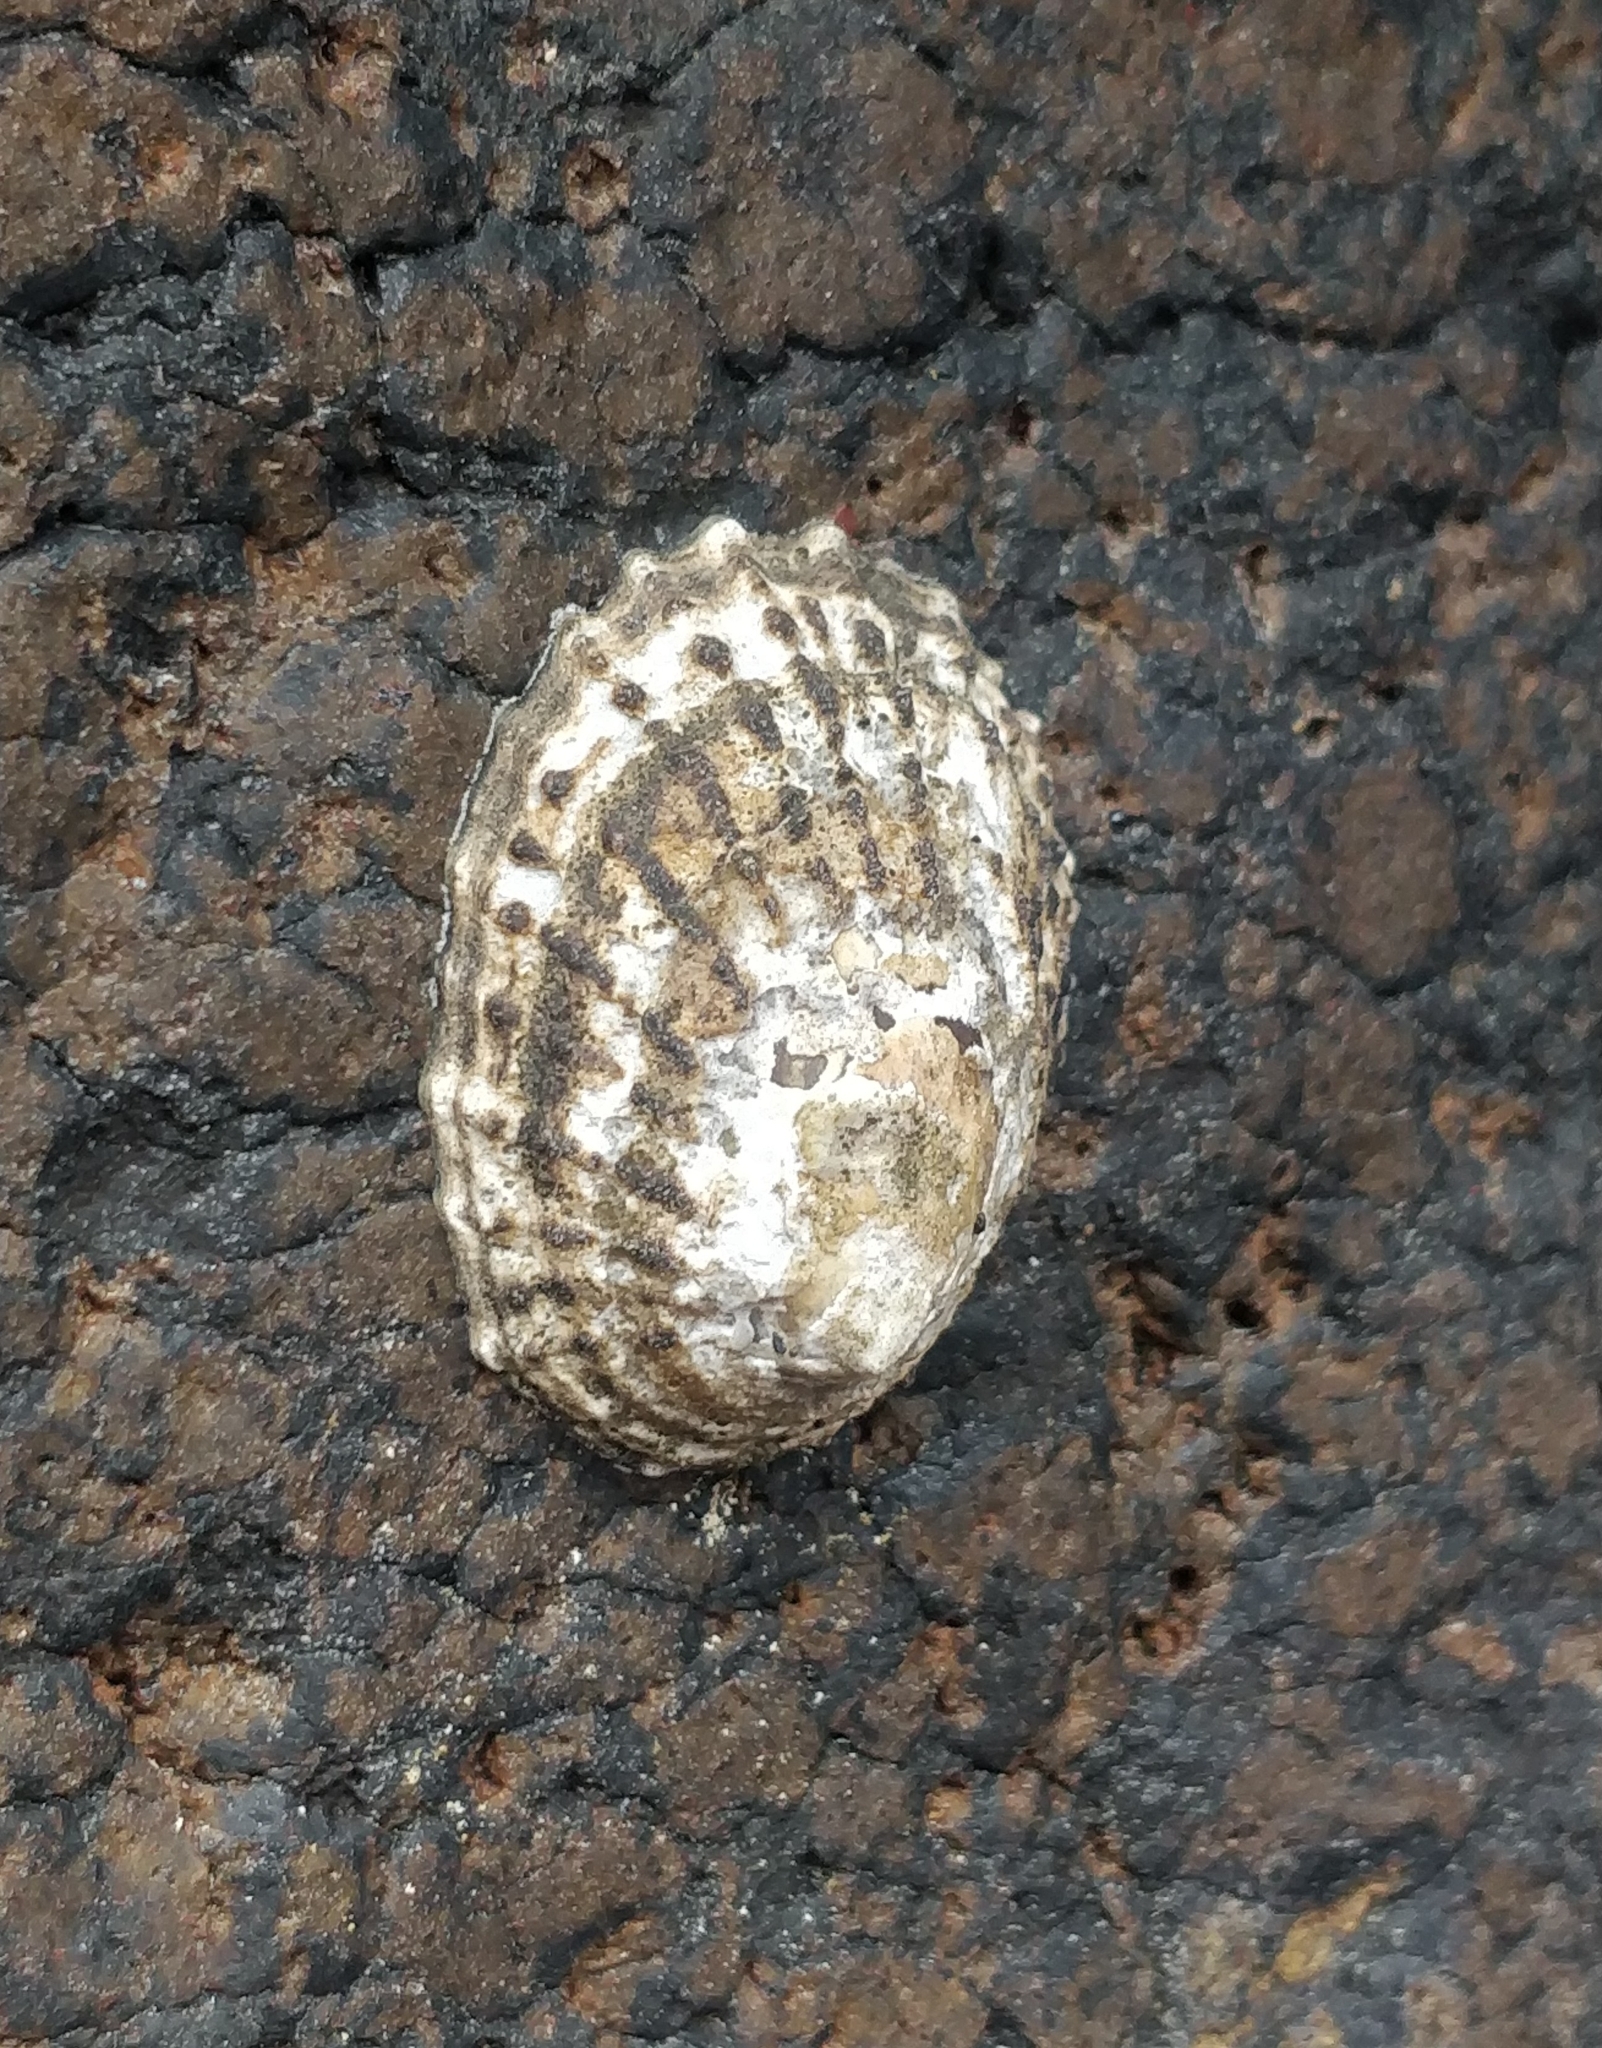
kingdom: Animalia
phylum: Mollusca
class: Gastropoda
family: Patellidae
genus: Patella
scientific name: Patella piperata
